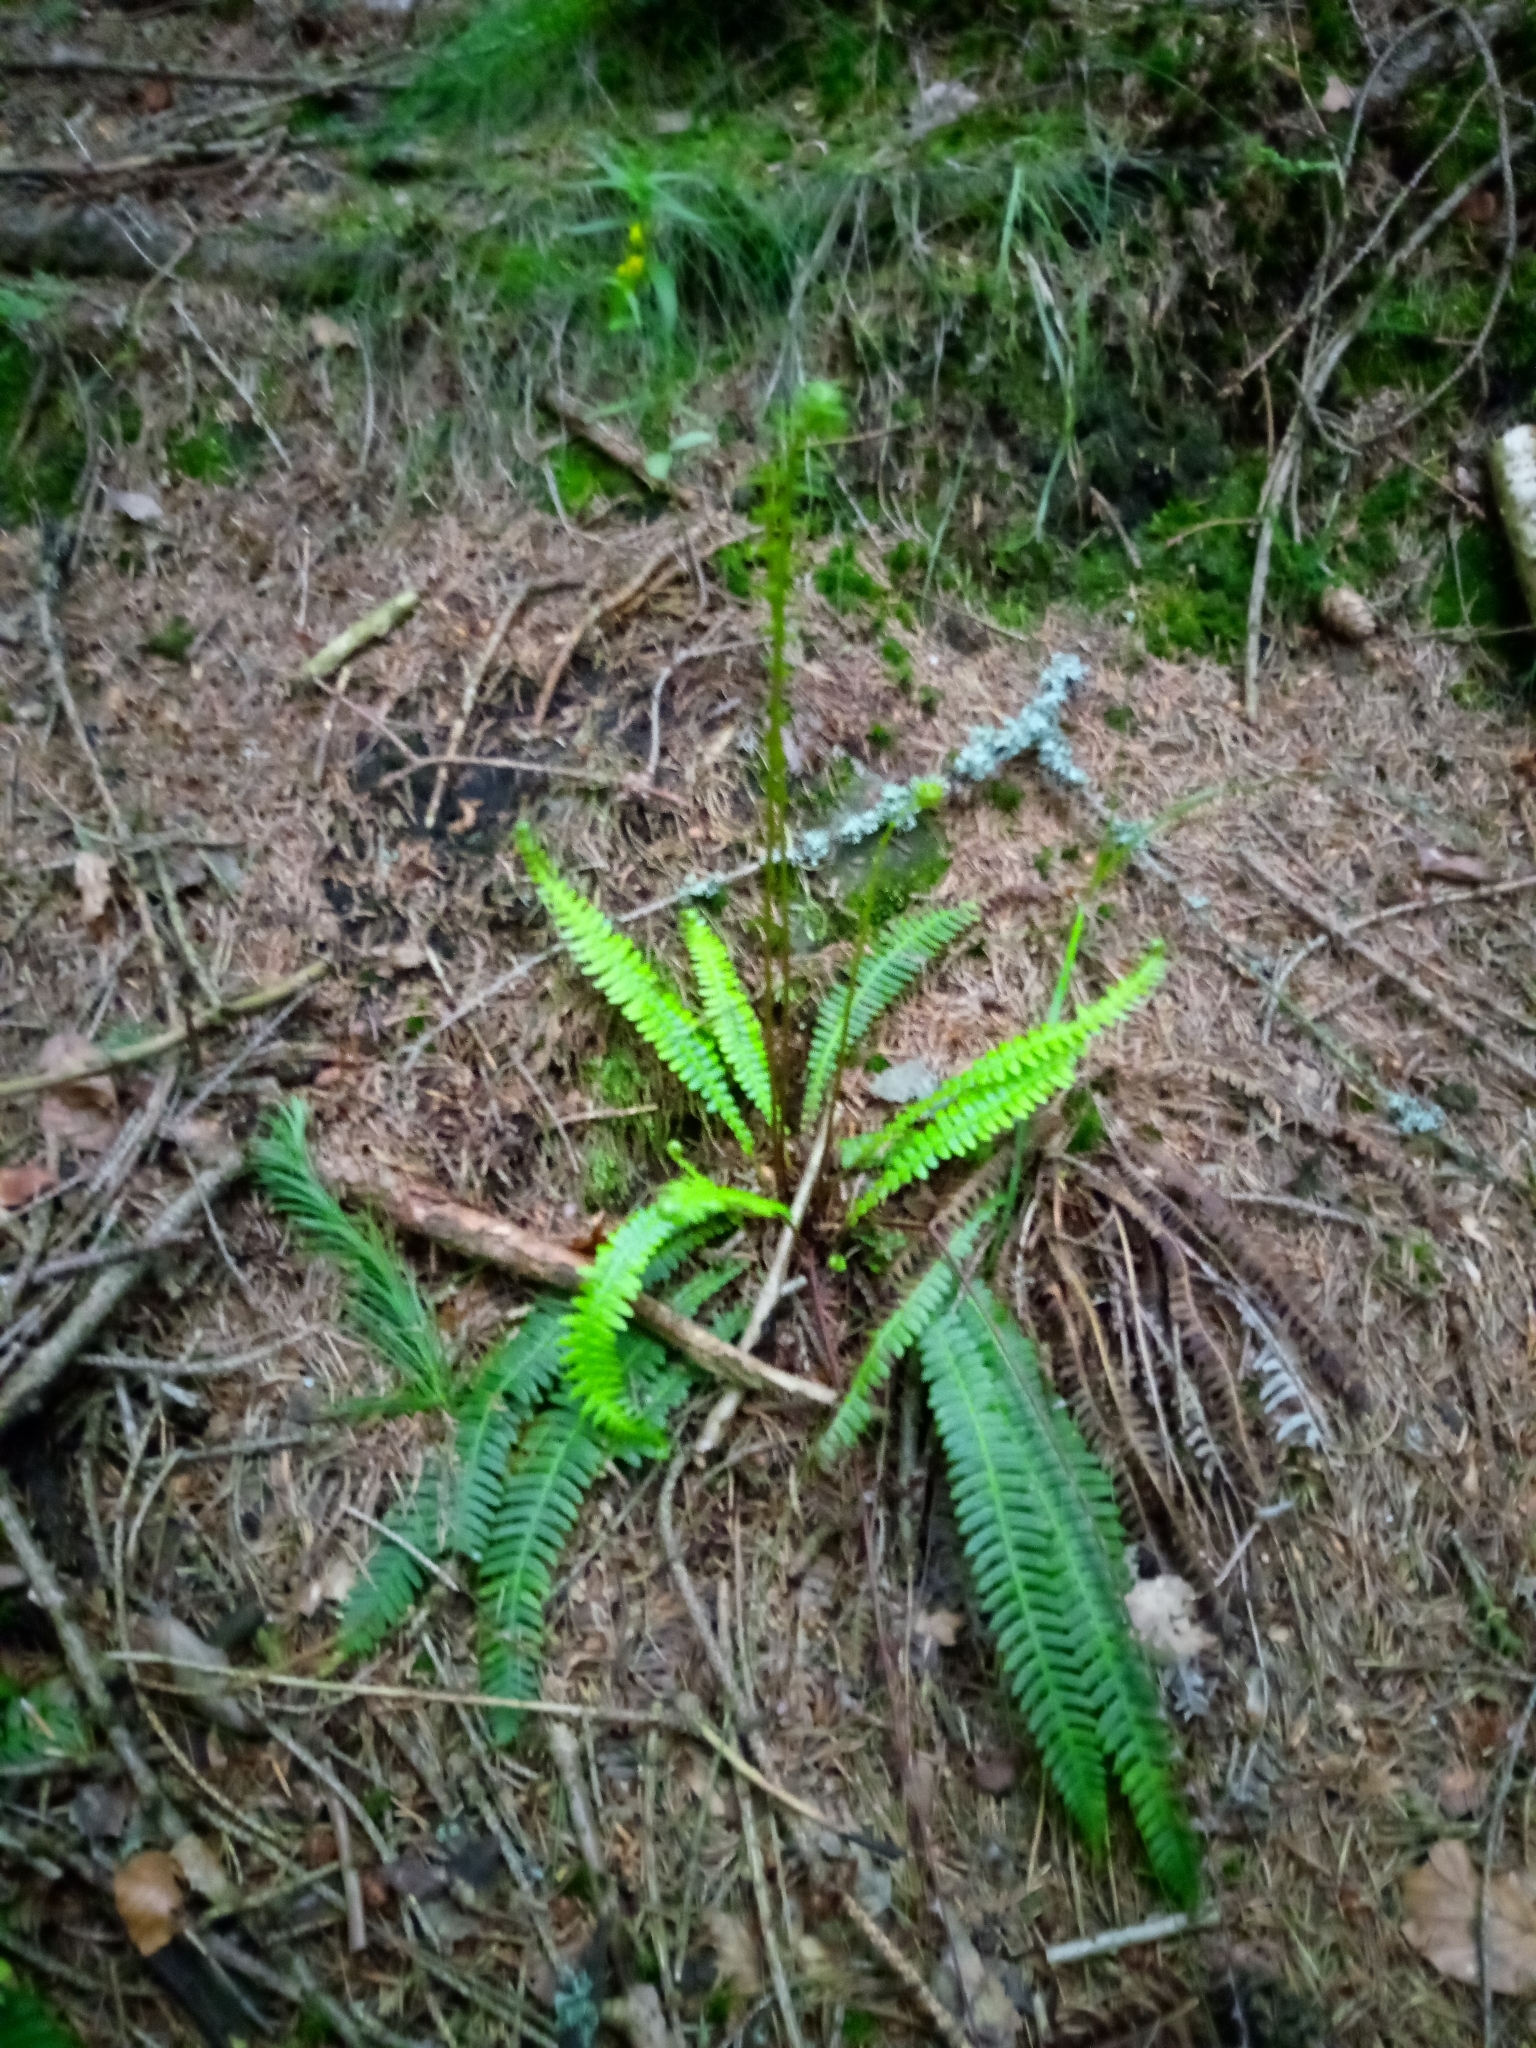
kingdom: Plantae
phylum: Tracheophyta
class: Polypodiopsida
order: Polypodiales
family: Blechnaceae
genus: Struthiopteris
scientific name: Struthiopteris spicant
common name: Deer fern
